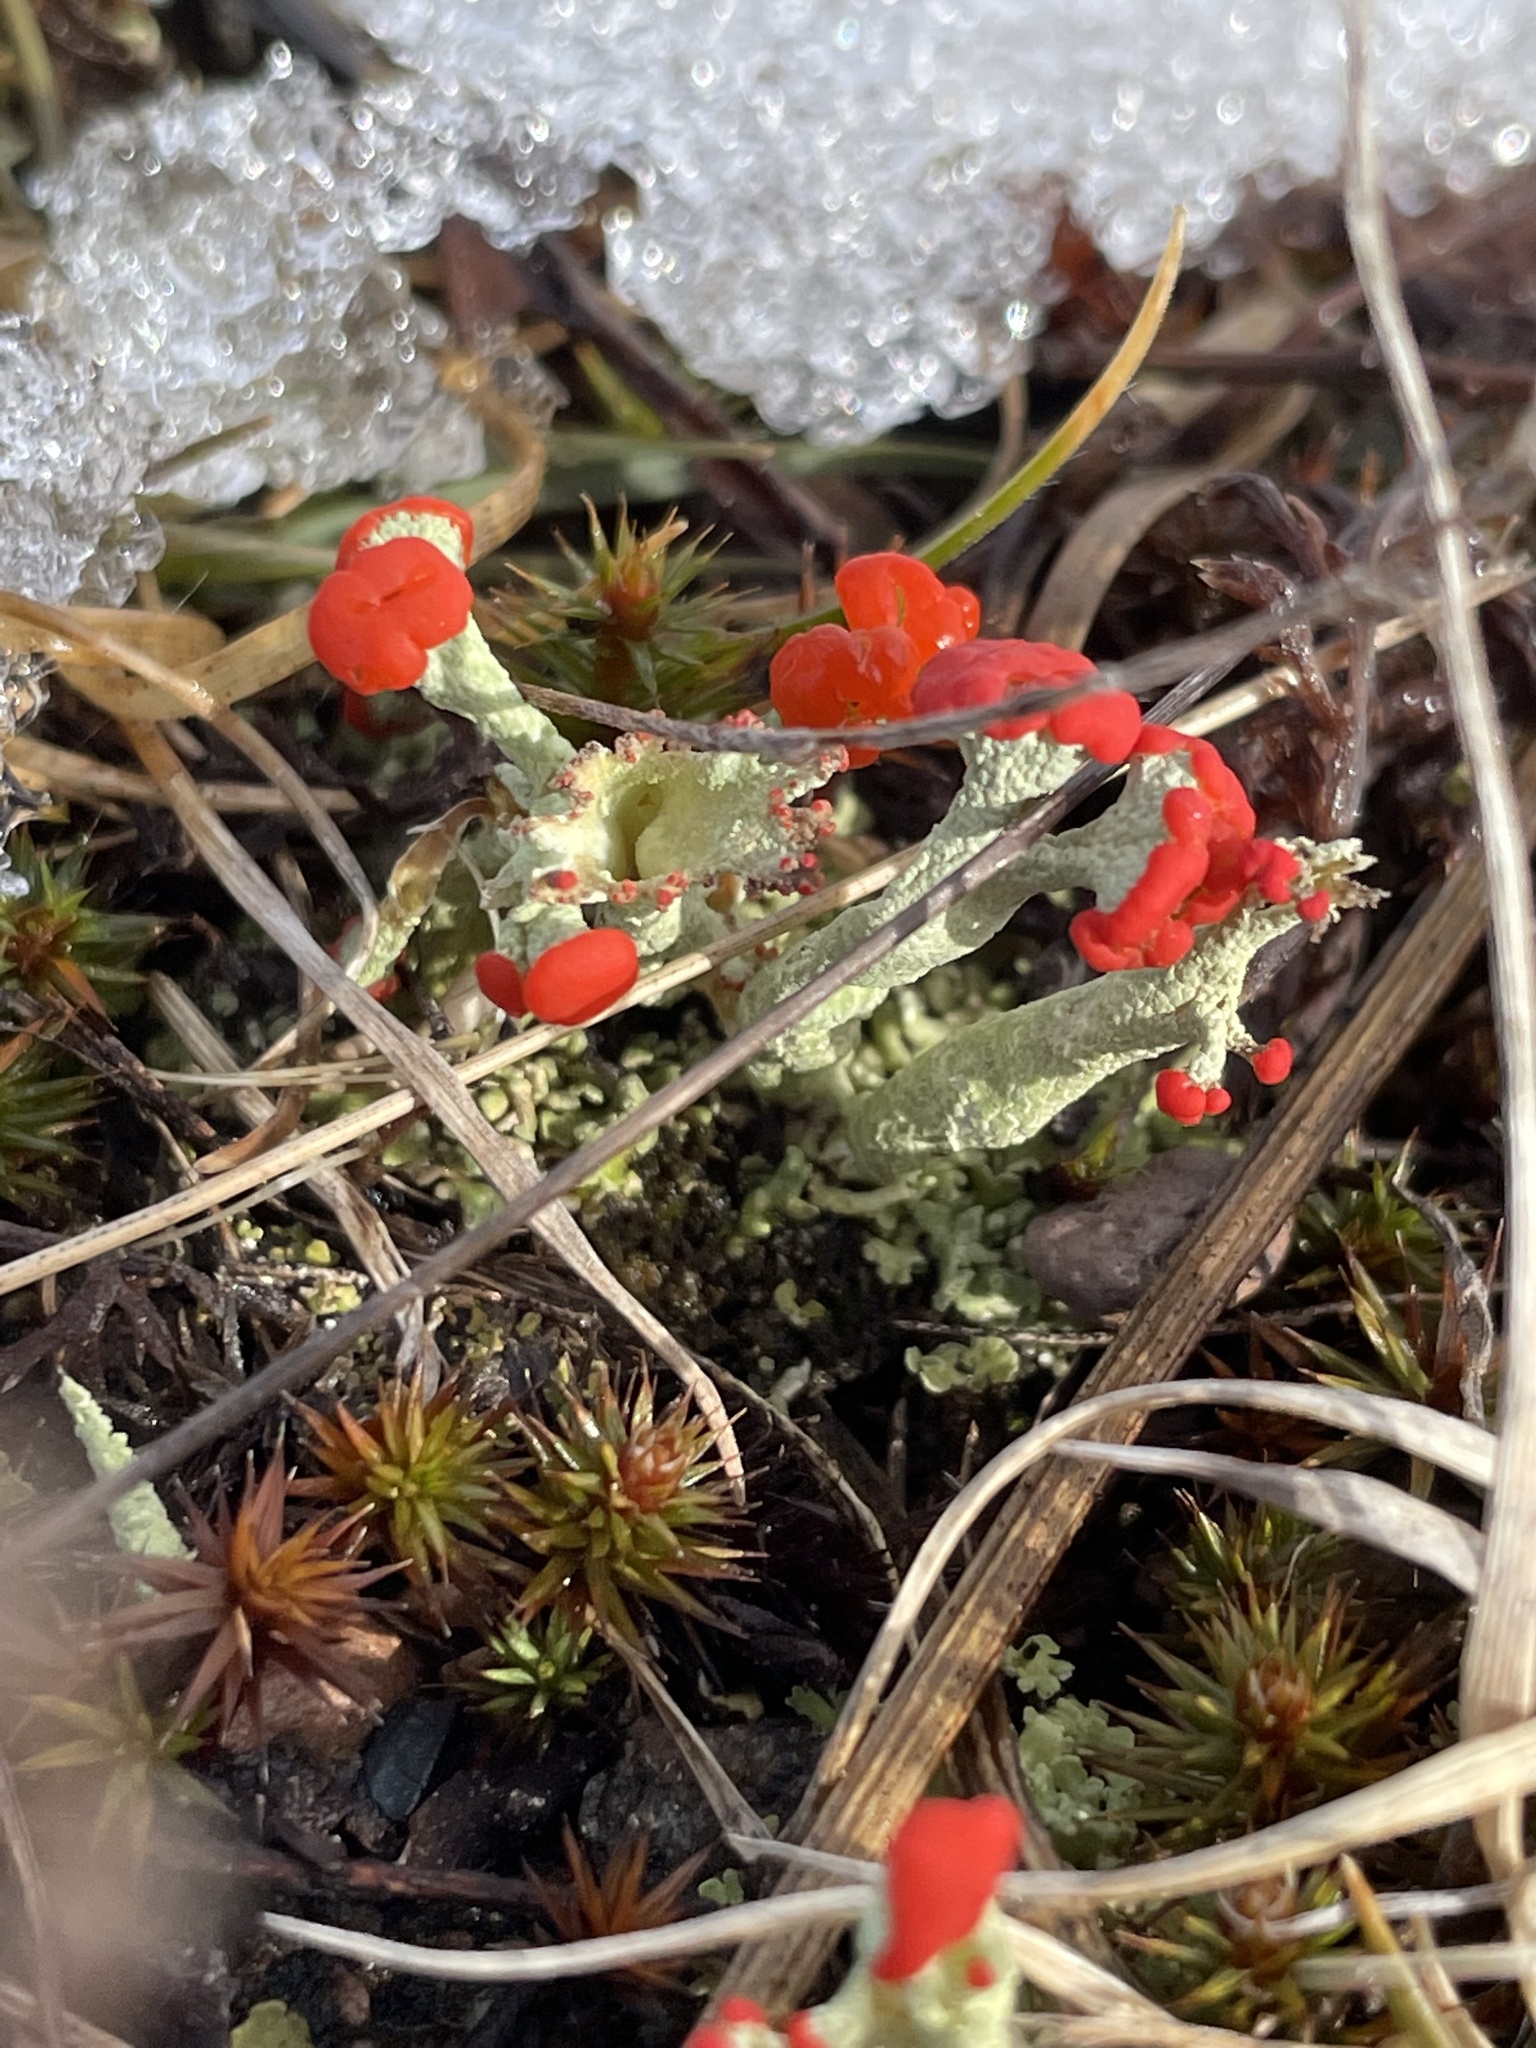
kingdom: Fungi
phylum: Ascomycota
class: Lecanoromycetes
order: Lecanorales
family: Cladoniaceae
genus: Cladonia
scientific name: Cladonia cristatella
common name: British soldier lichen
